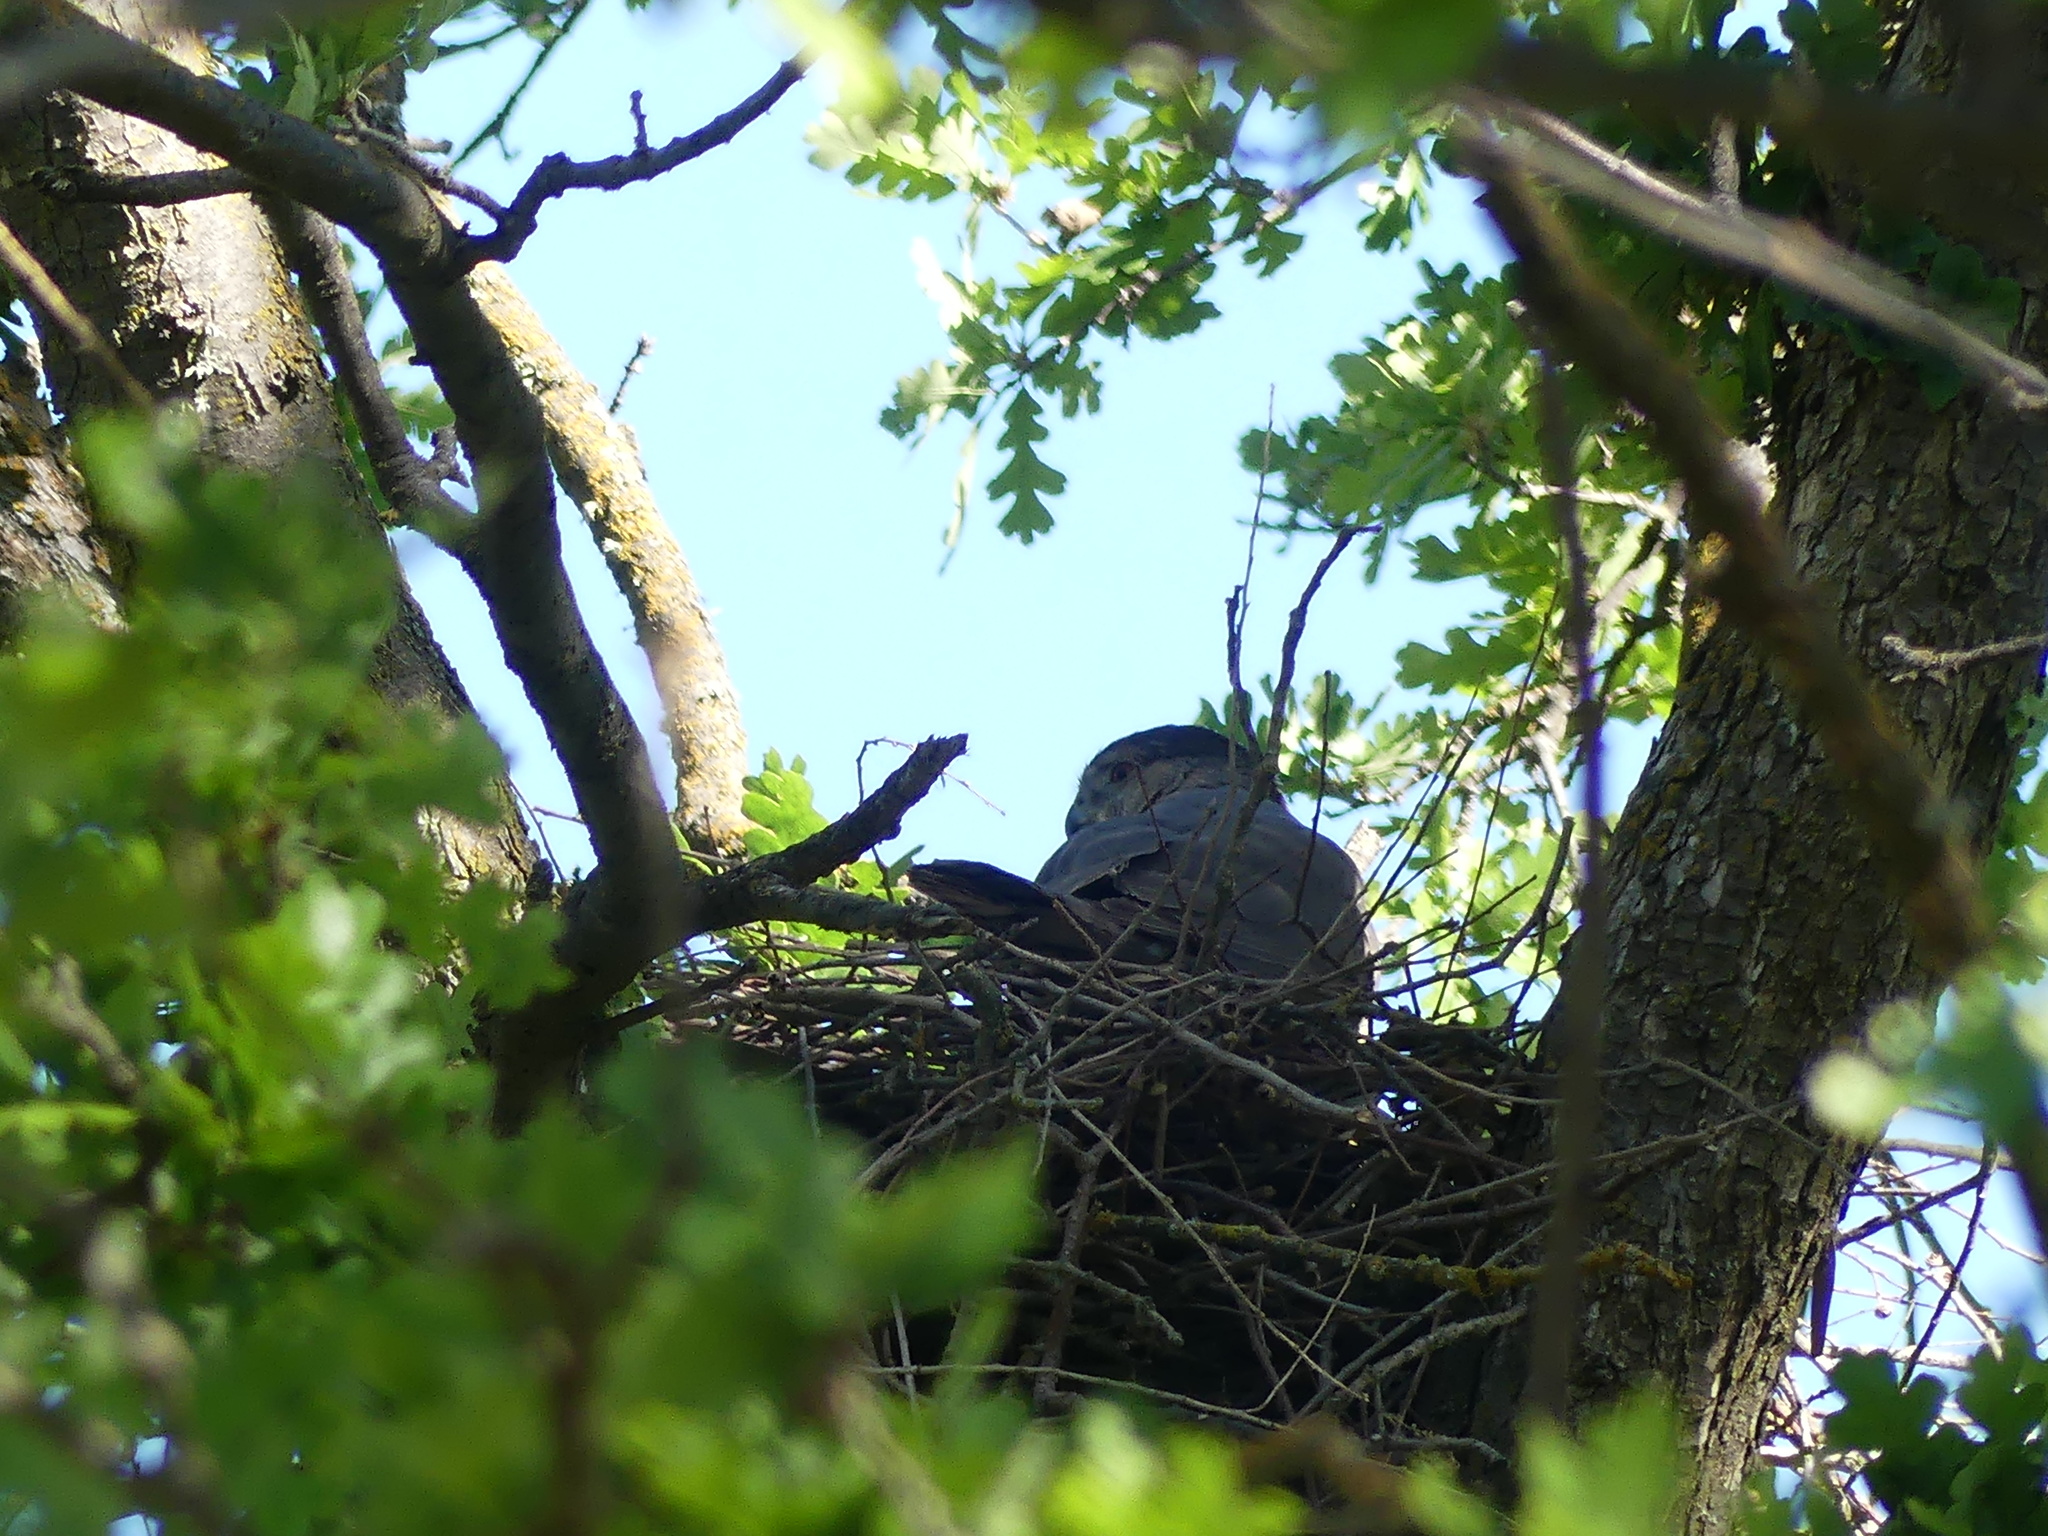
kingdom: Animalia
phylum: Chordata
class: Aves
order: Accipitriformes
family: Accipitridae
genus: Accipiter
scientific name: Accipiter cooperii
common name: Cooper's hawk
